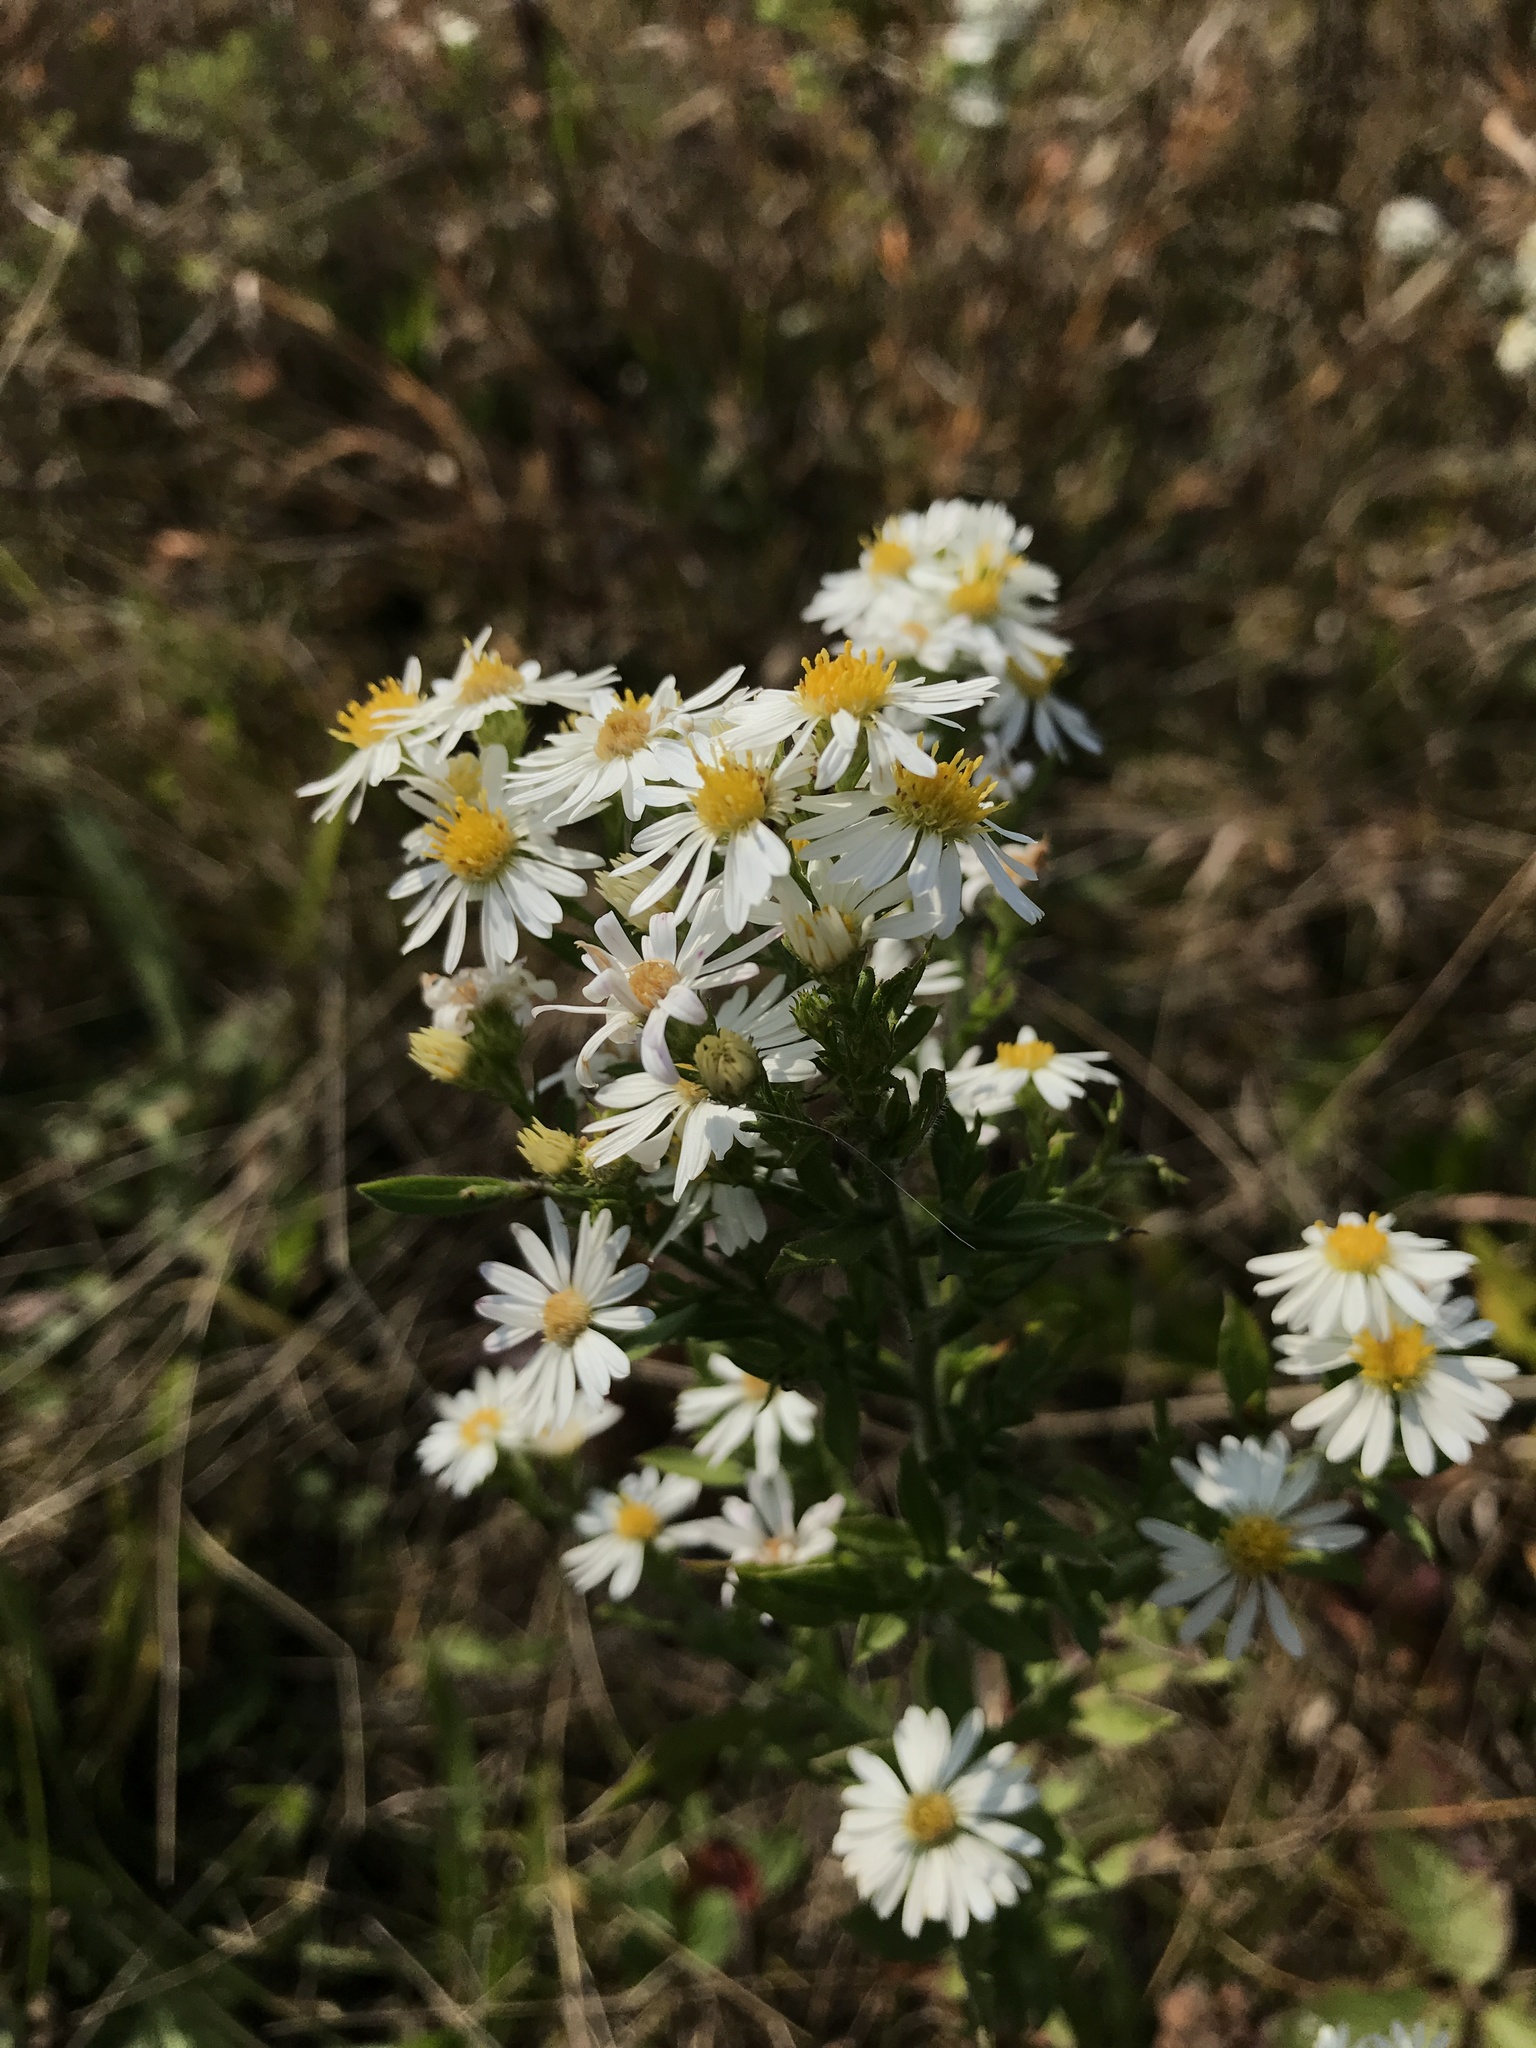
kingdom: Plantae
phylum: Tracheophyta
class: Magnoliopsida
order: Asterales
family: Asteraceae
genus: Symphyotrichum
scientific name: Symphyotrichum pilosum
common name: Awl aster
